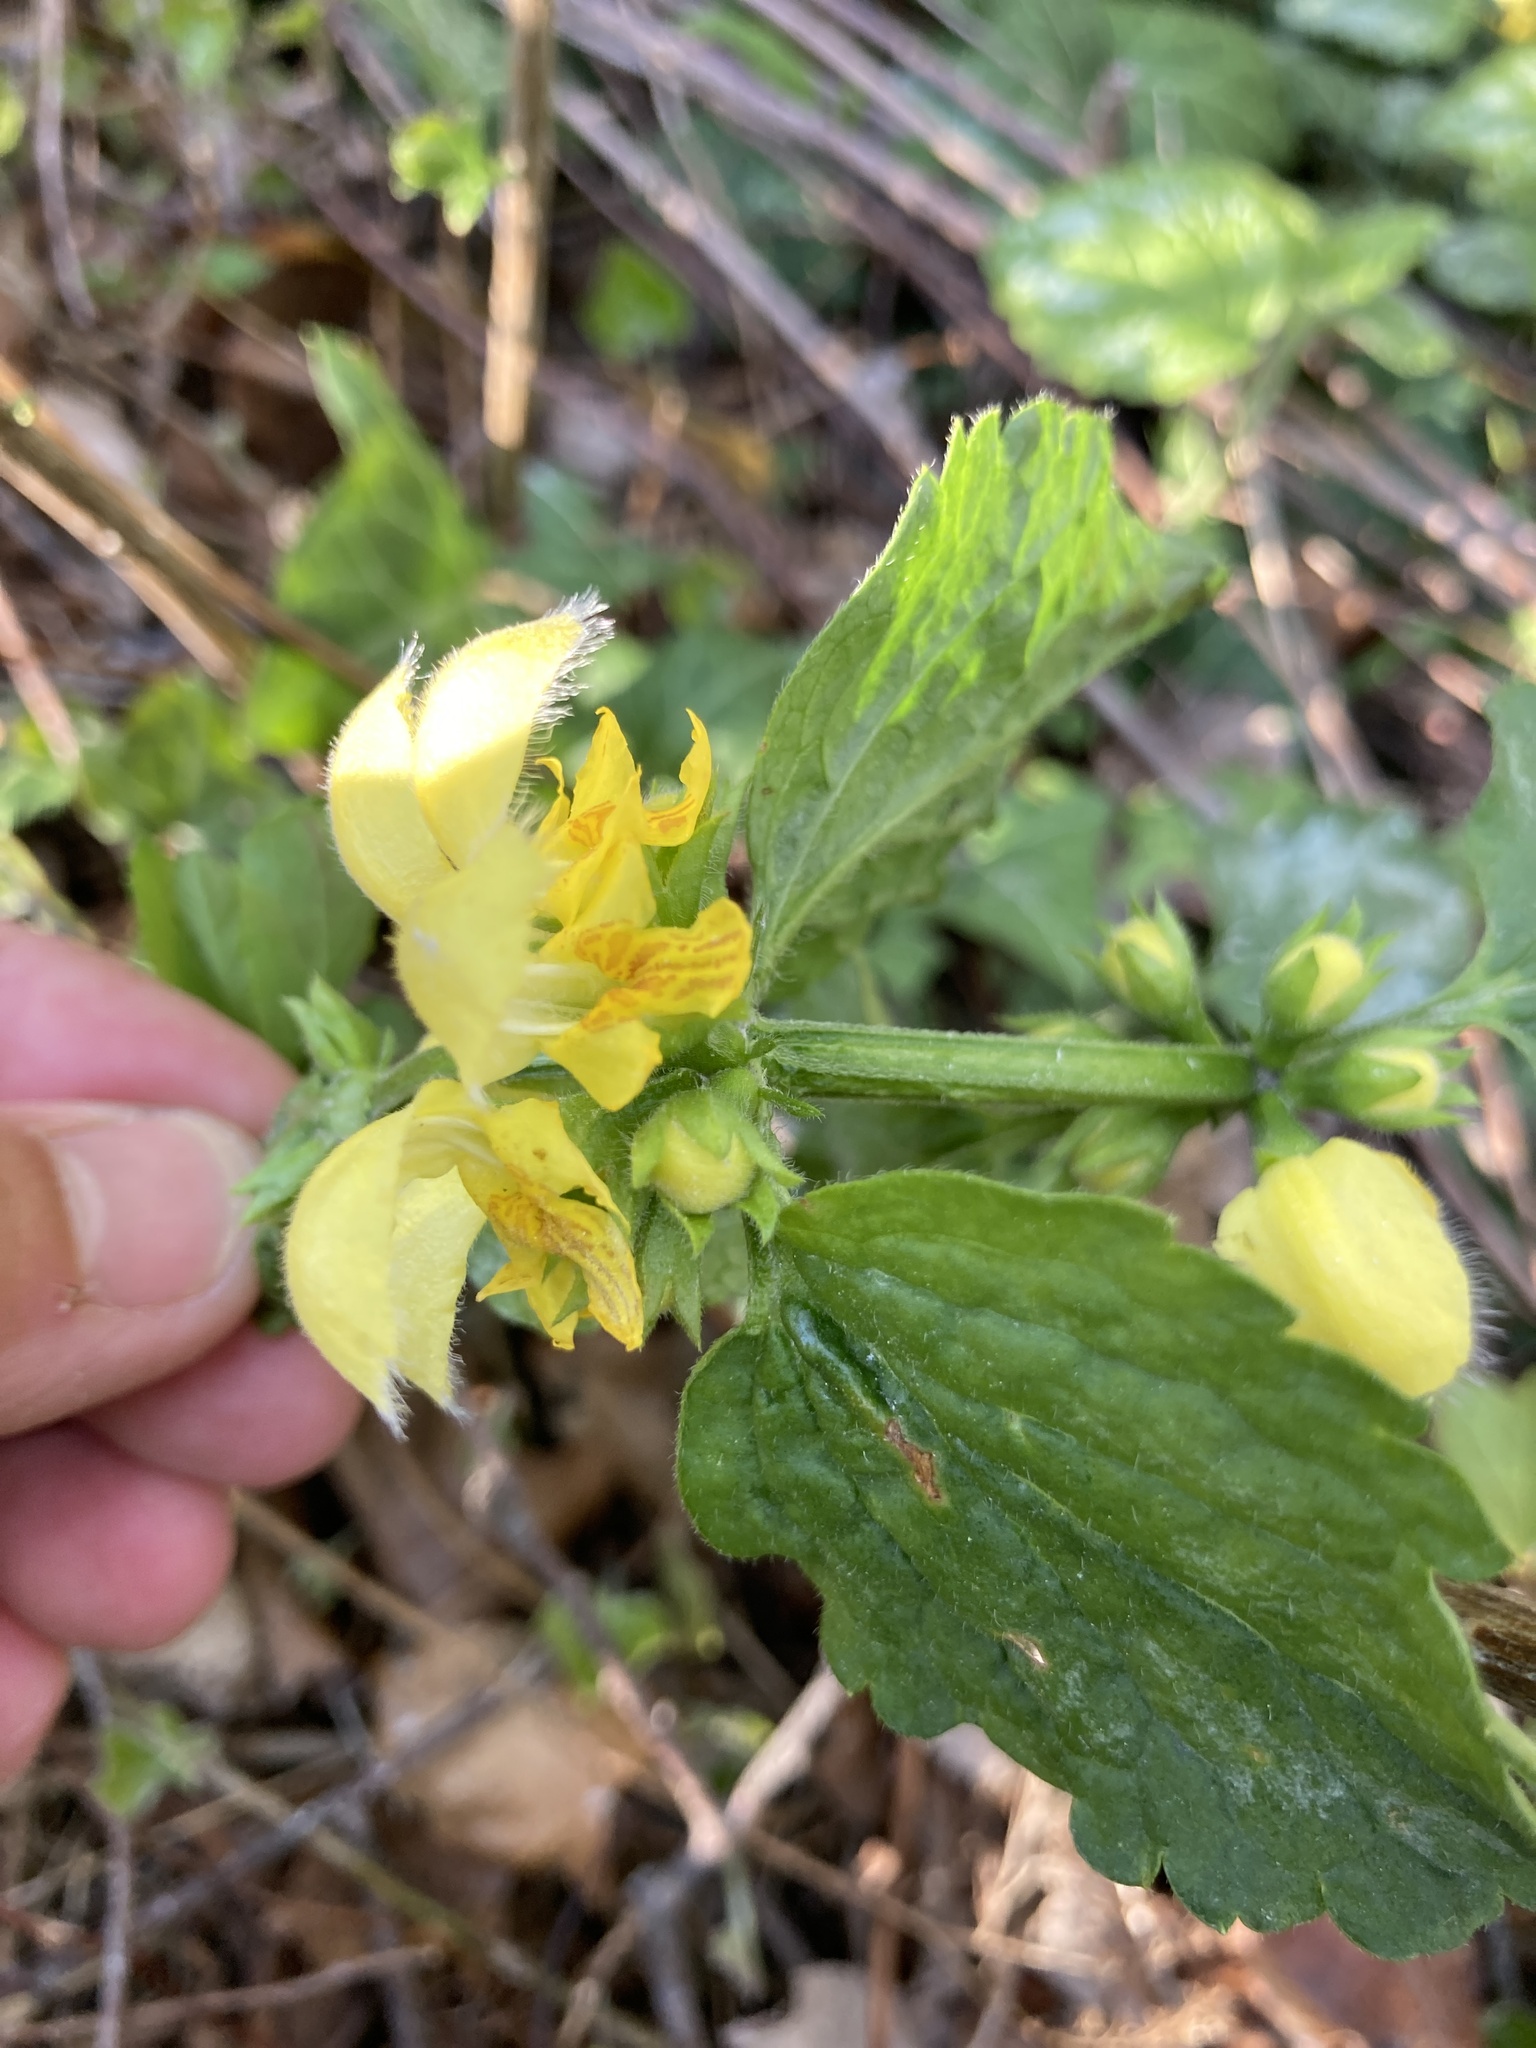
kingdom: Plantae
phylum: Tracheophyta
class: Magnoliopsida
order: Lamiales
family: Lamiaceae
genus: Lamium
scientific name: Lamium galeobdolon
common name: Yellow archangel
